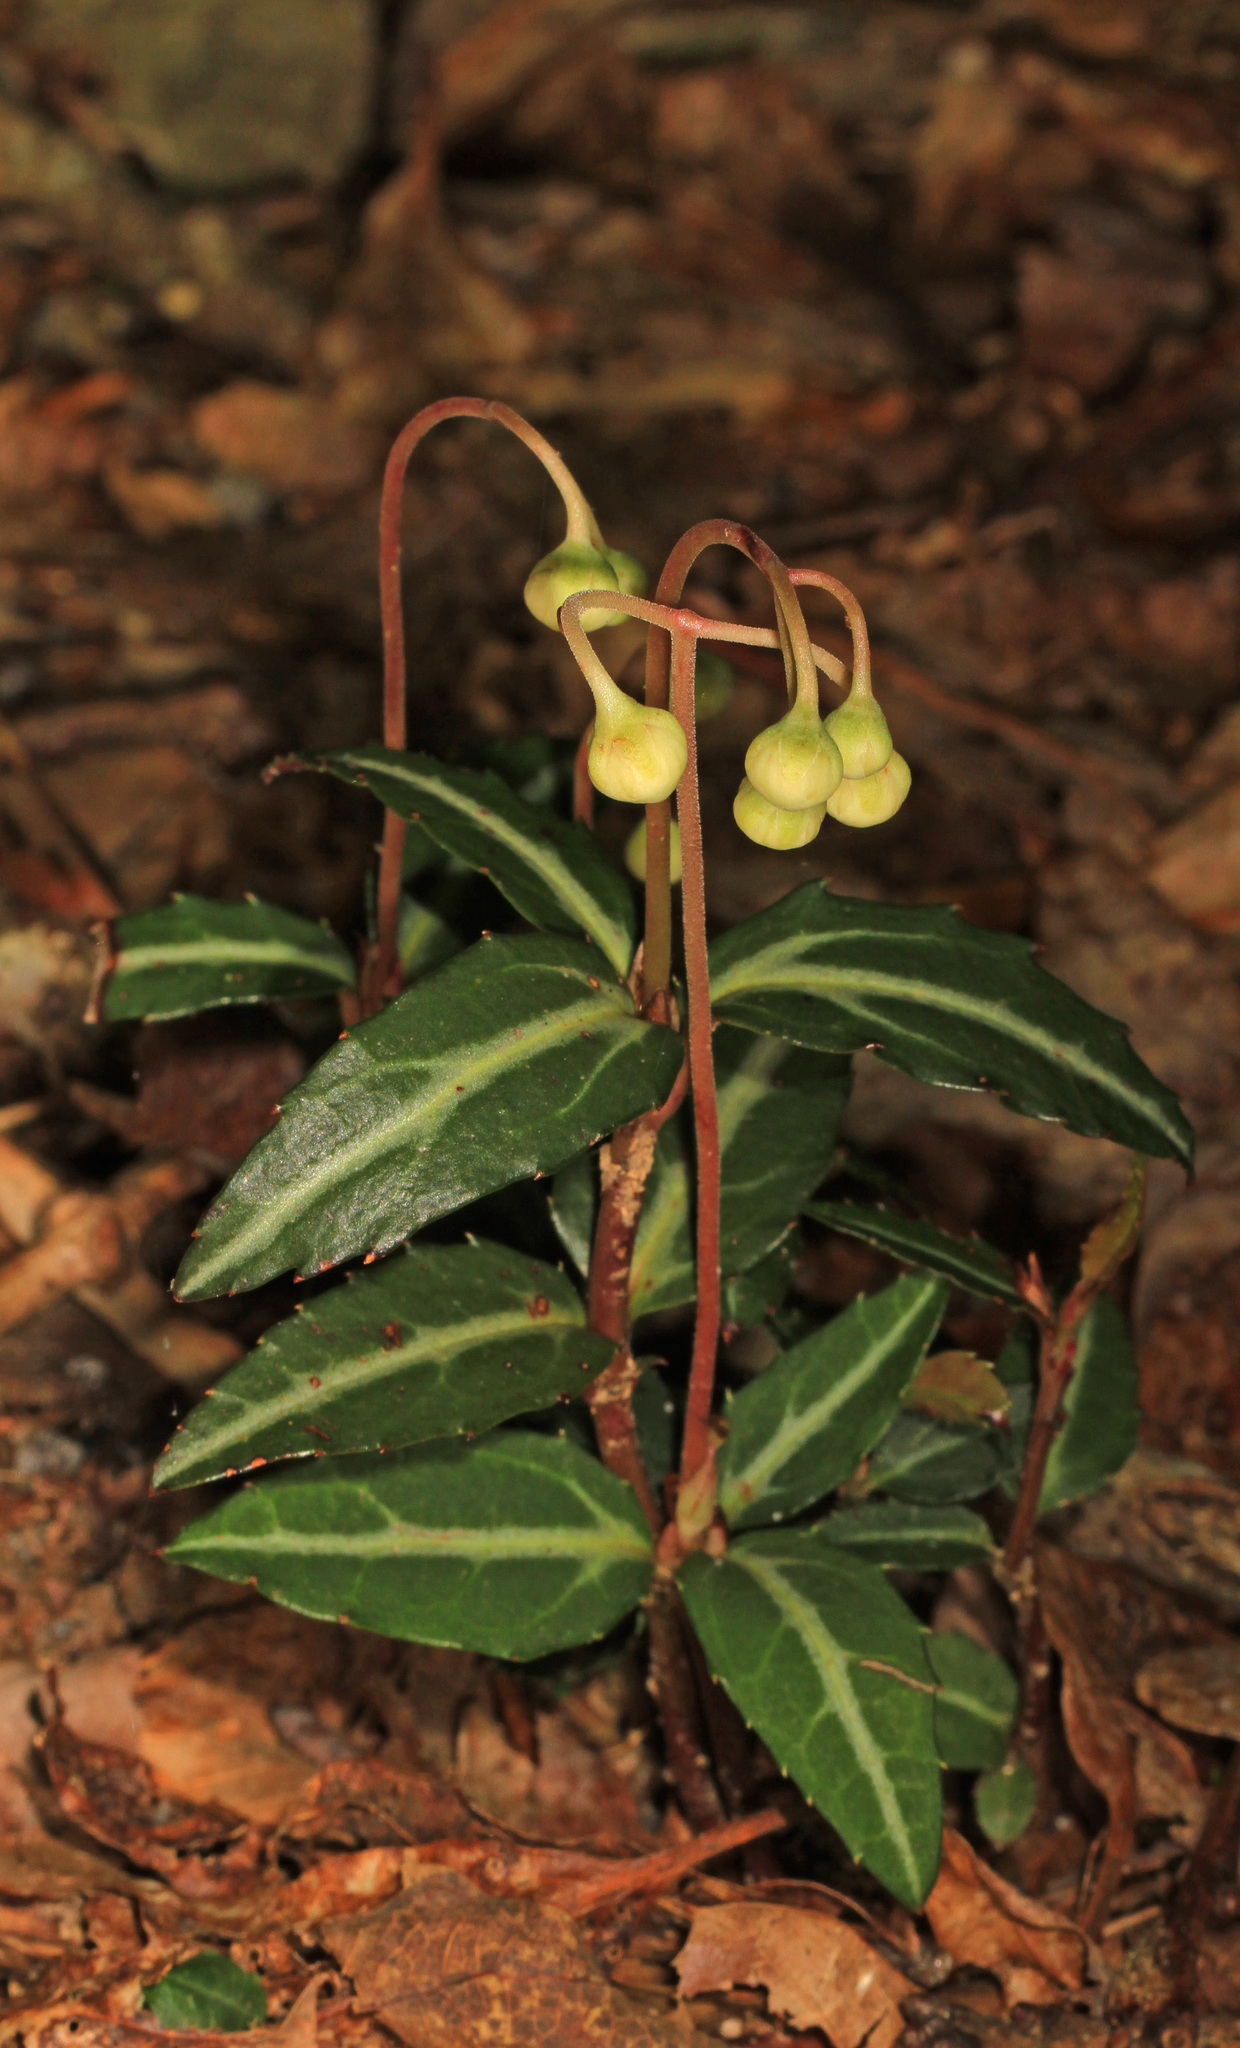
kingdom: Plantae
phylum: Tracheophyta
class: Magnoliopsida
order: Ericales
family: Ericaceae
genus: Chimaphila
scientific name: Chimaphila maculata
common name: Spotted pipsissewa
